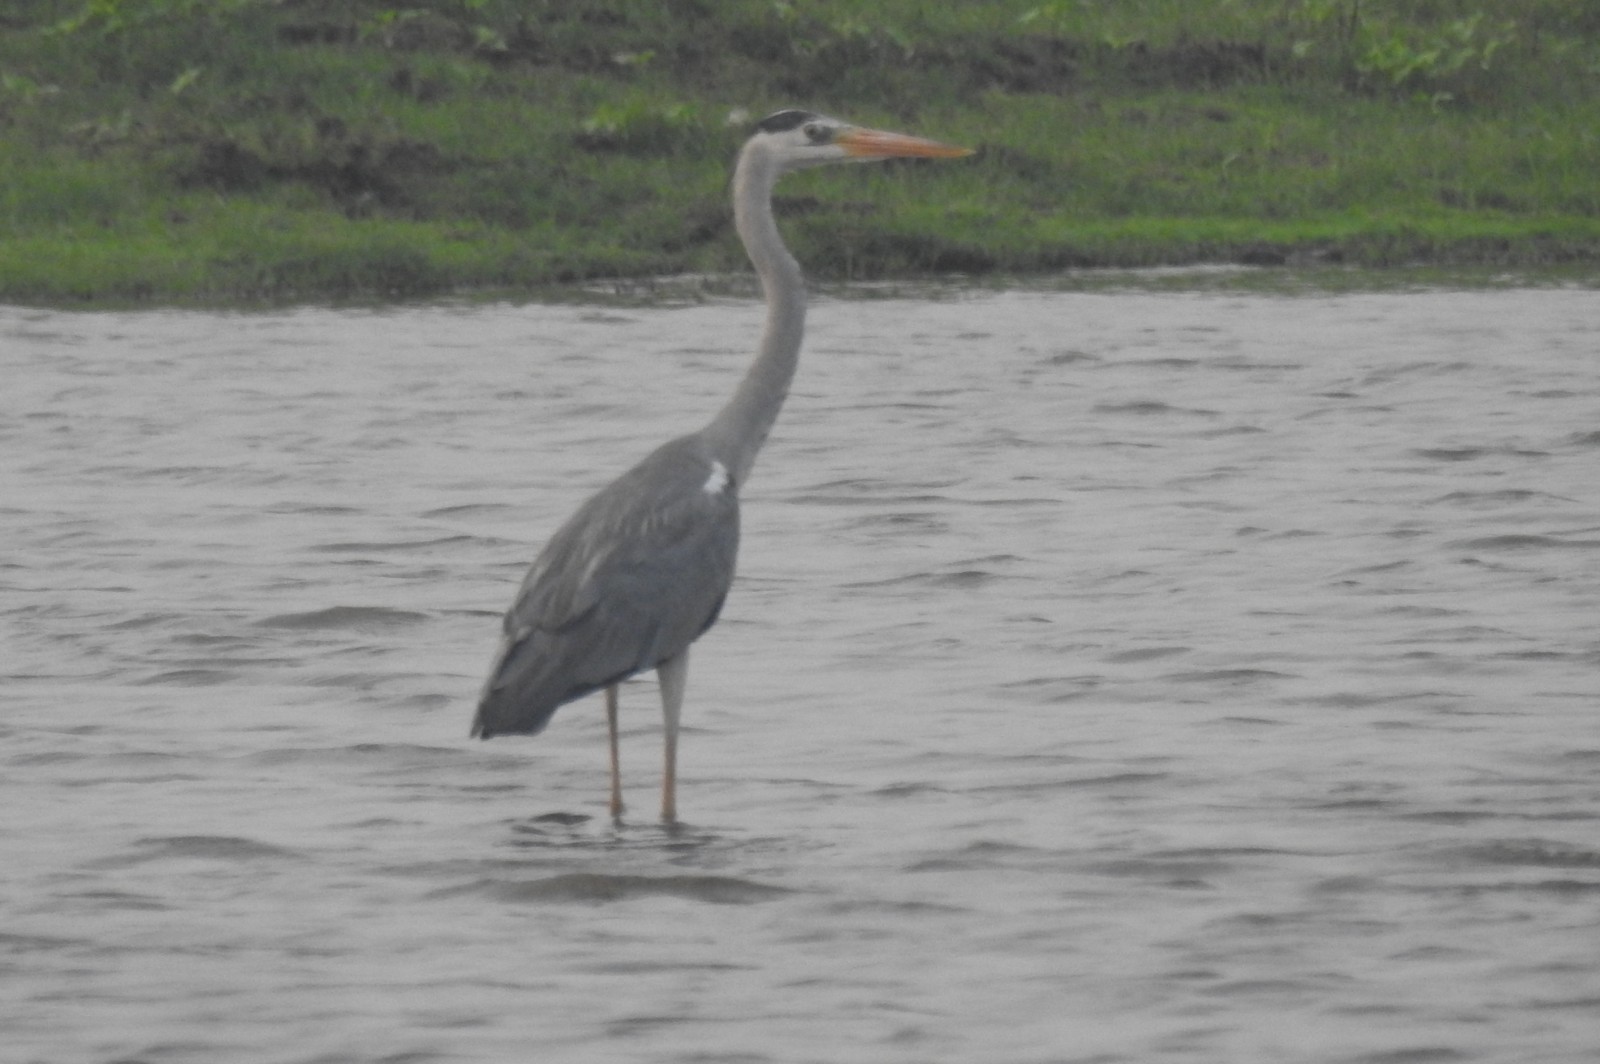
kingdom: Animalia
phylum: Chordata
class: Aves
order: Pelecaniformes
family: Ardeidae
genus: Ardea
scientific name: Ardea cinerea
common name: Grey heron
